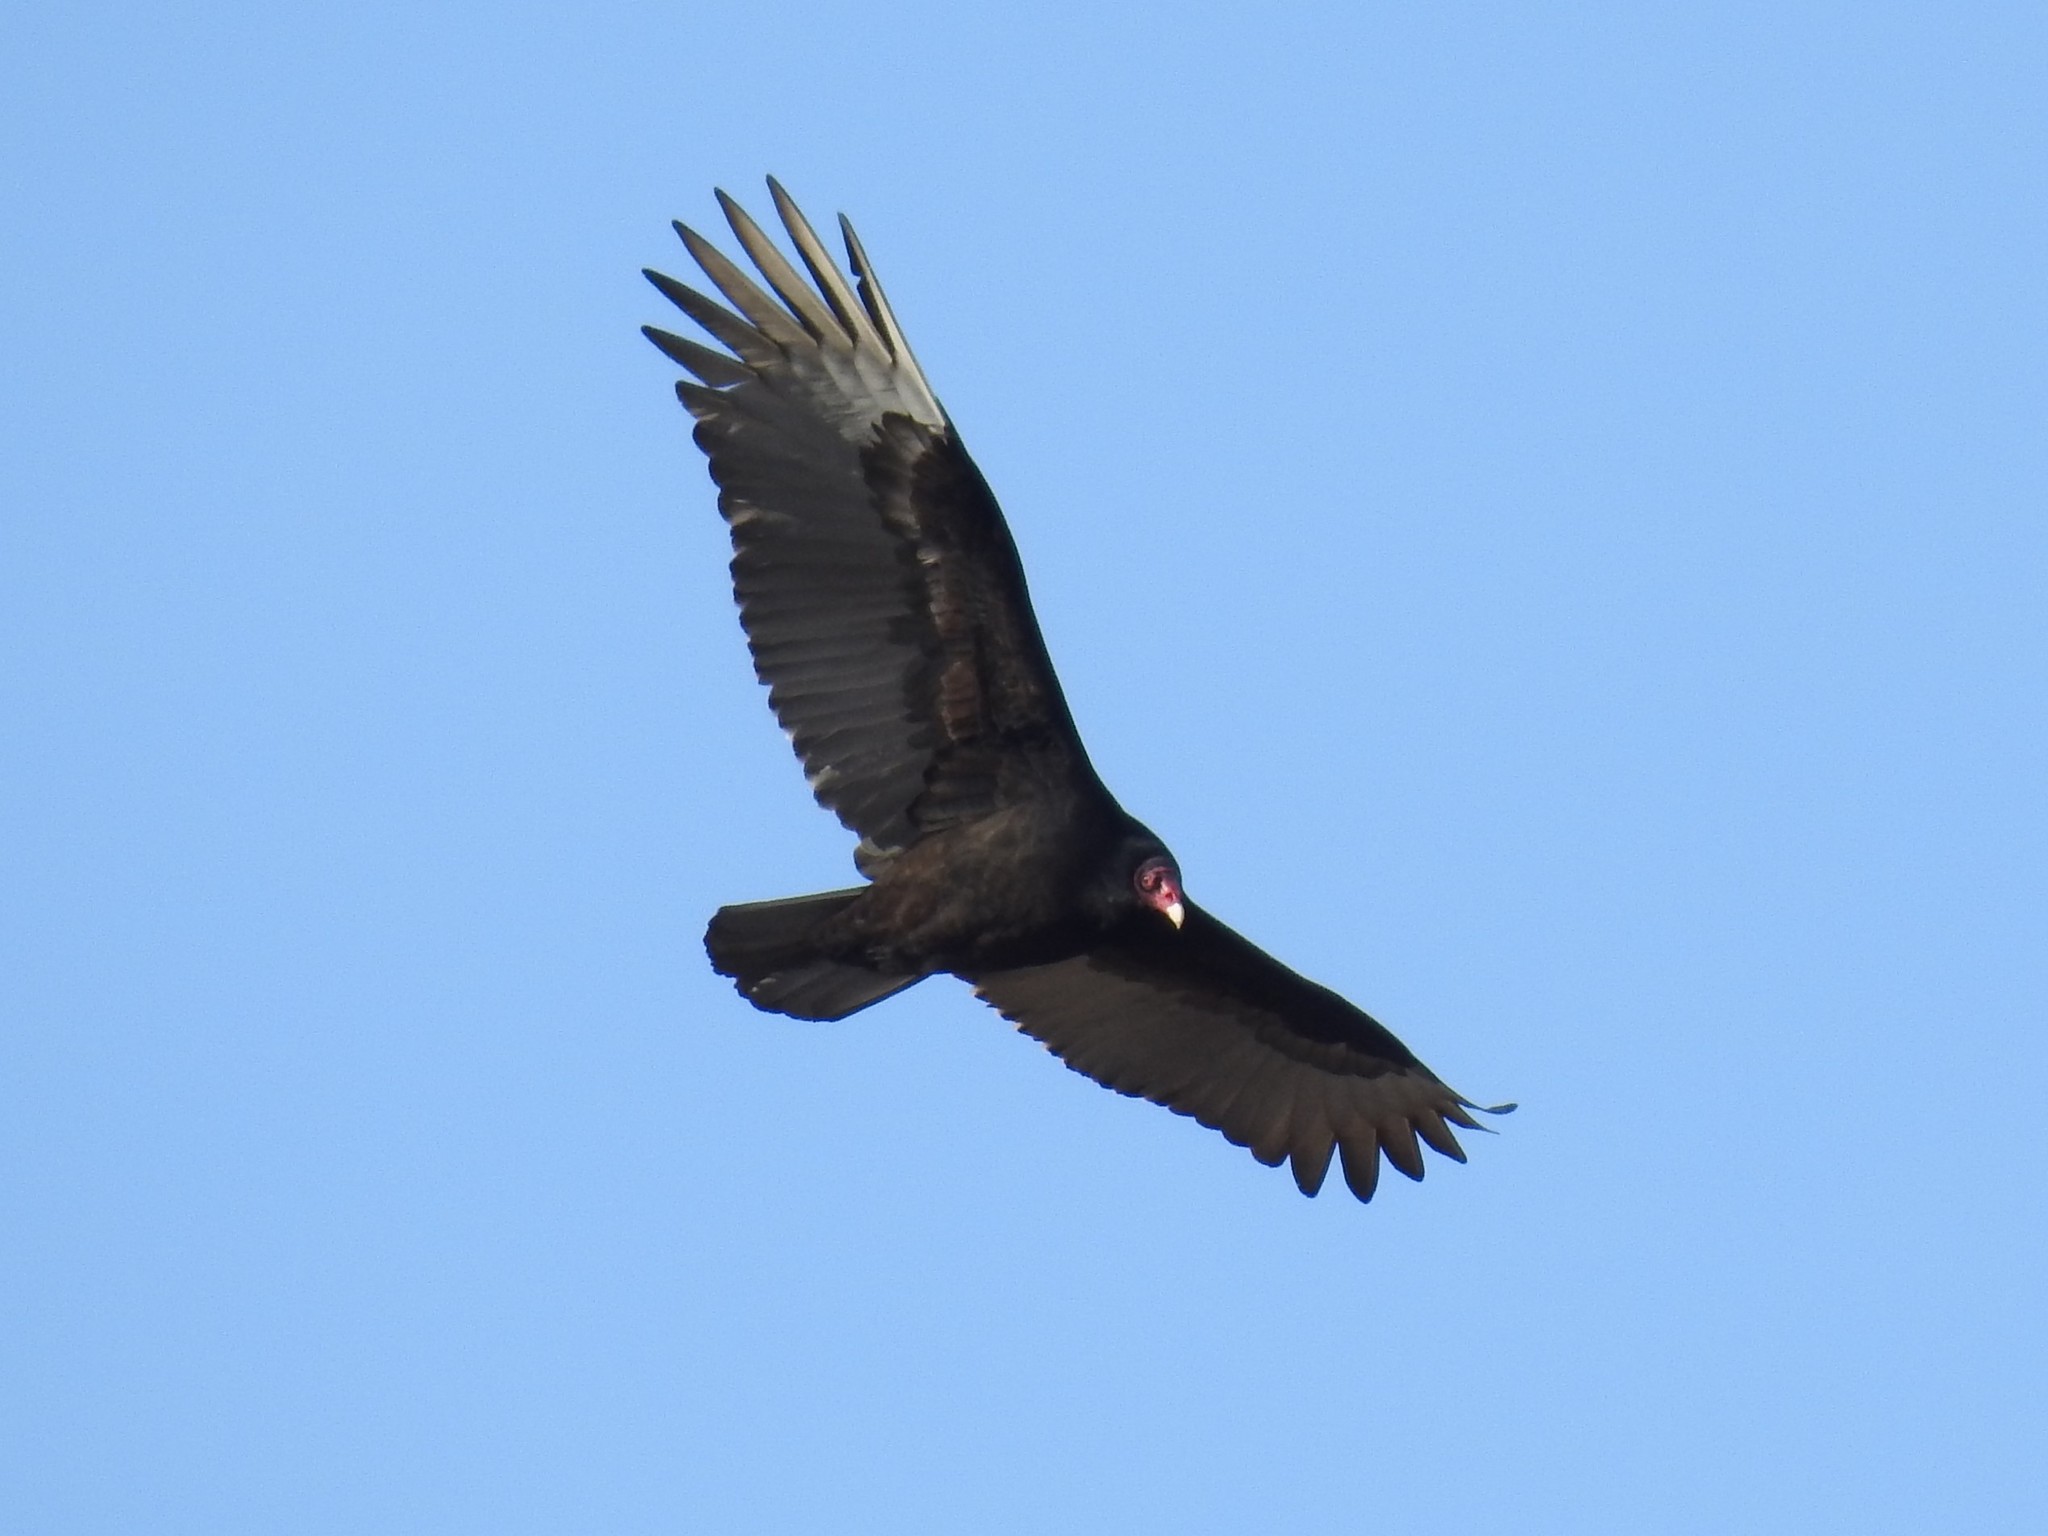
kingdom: Animalia
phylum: Chordata
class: Aves
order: Accipitriformes
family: Cathartidae
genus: Cathartes
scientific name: Cathartes aura
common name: Turkey vulture
